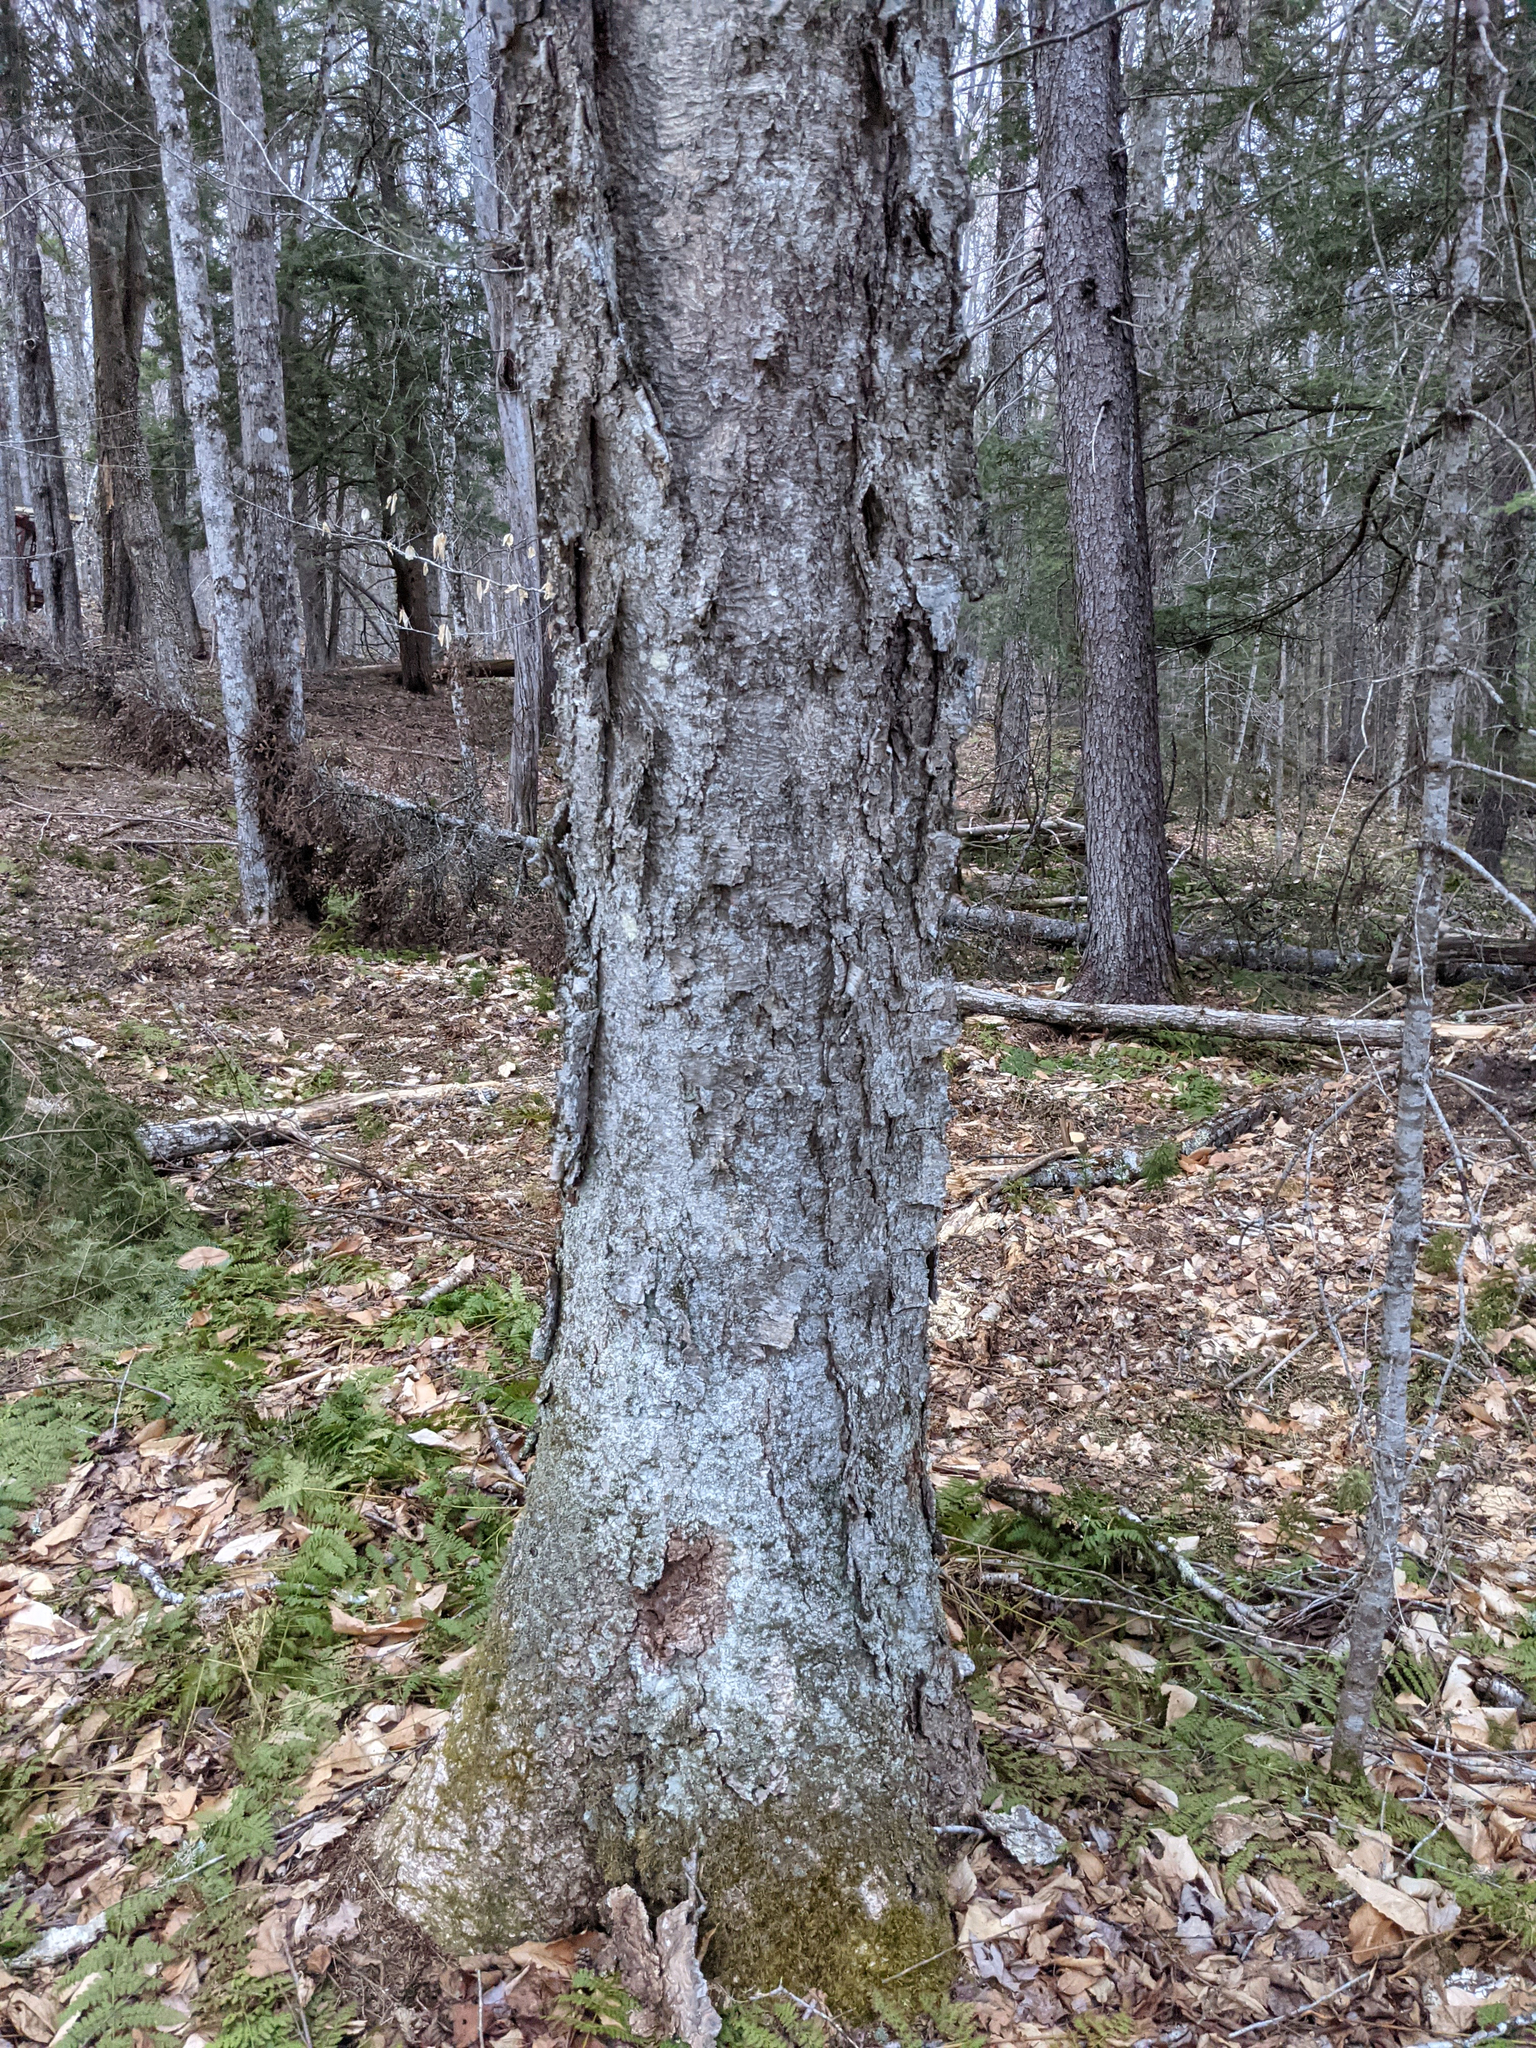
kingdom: Plantae
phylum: Tracheophyta
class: Magnoliopsida
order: Fagales
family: Betulaceae
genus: Betula
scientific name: Betula alleghaniensis
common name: Yellow birch
